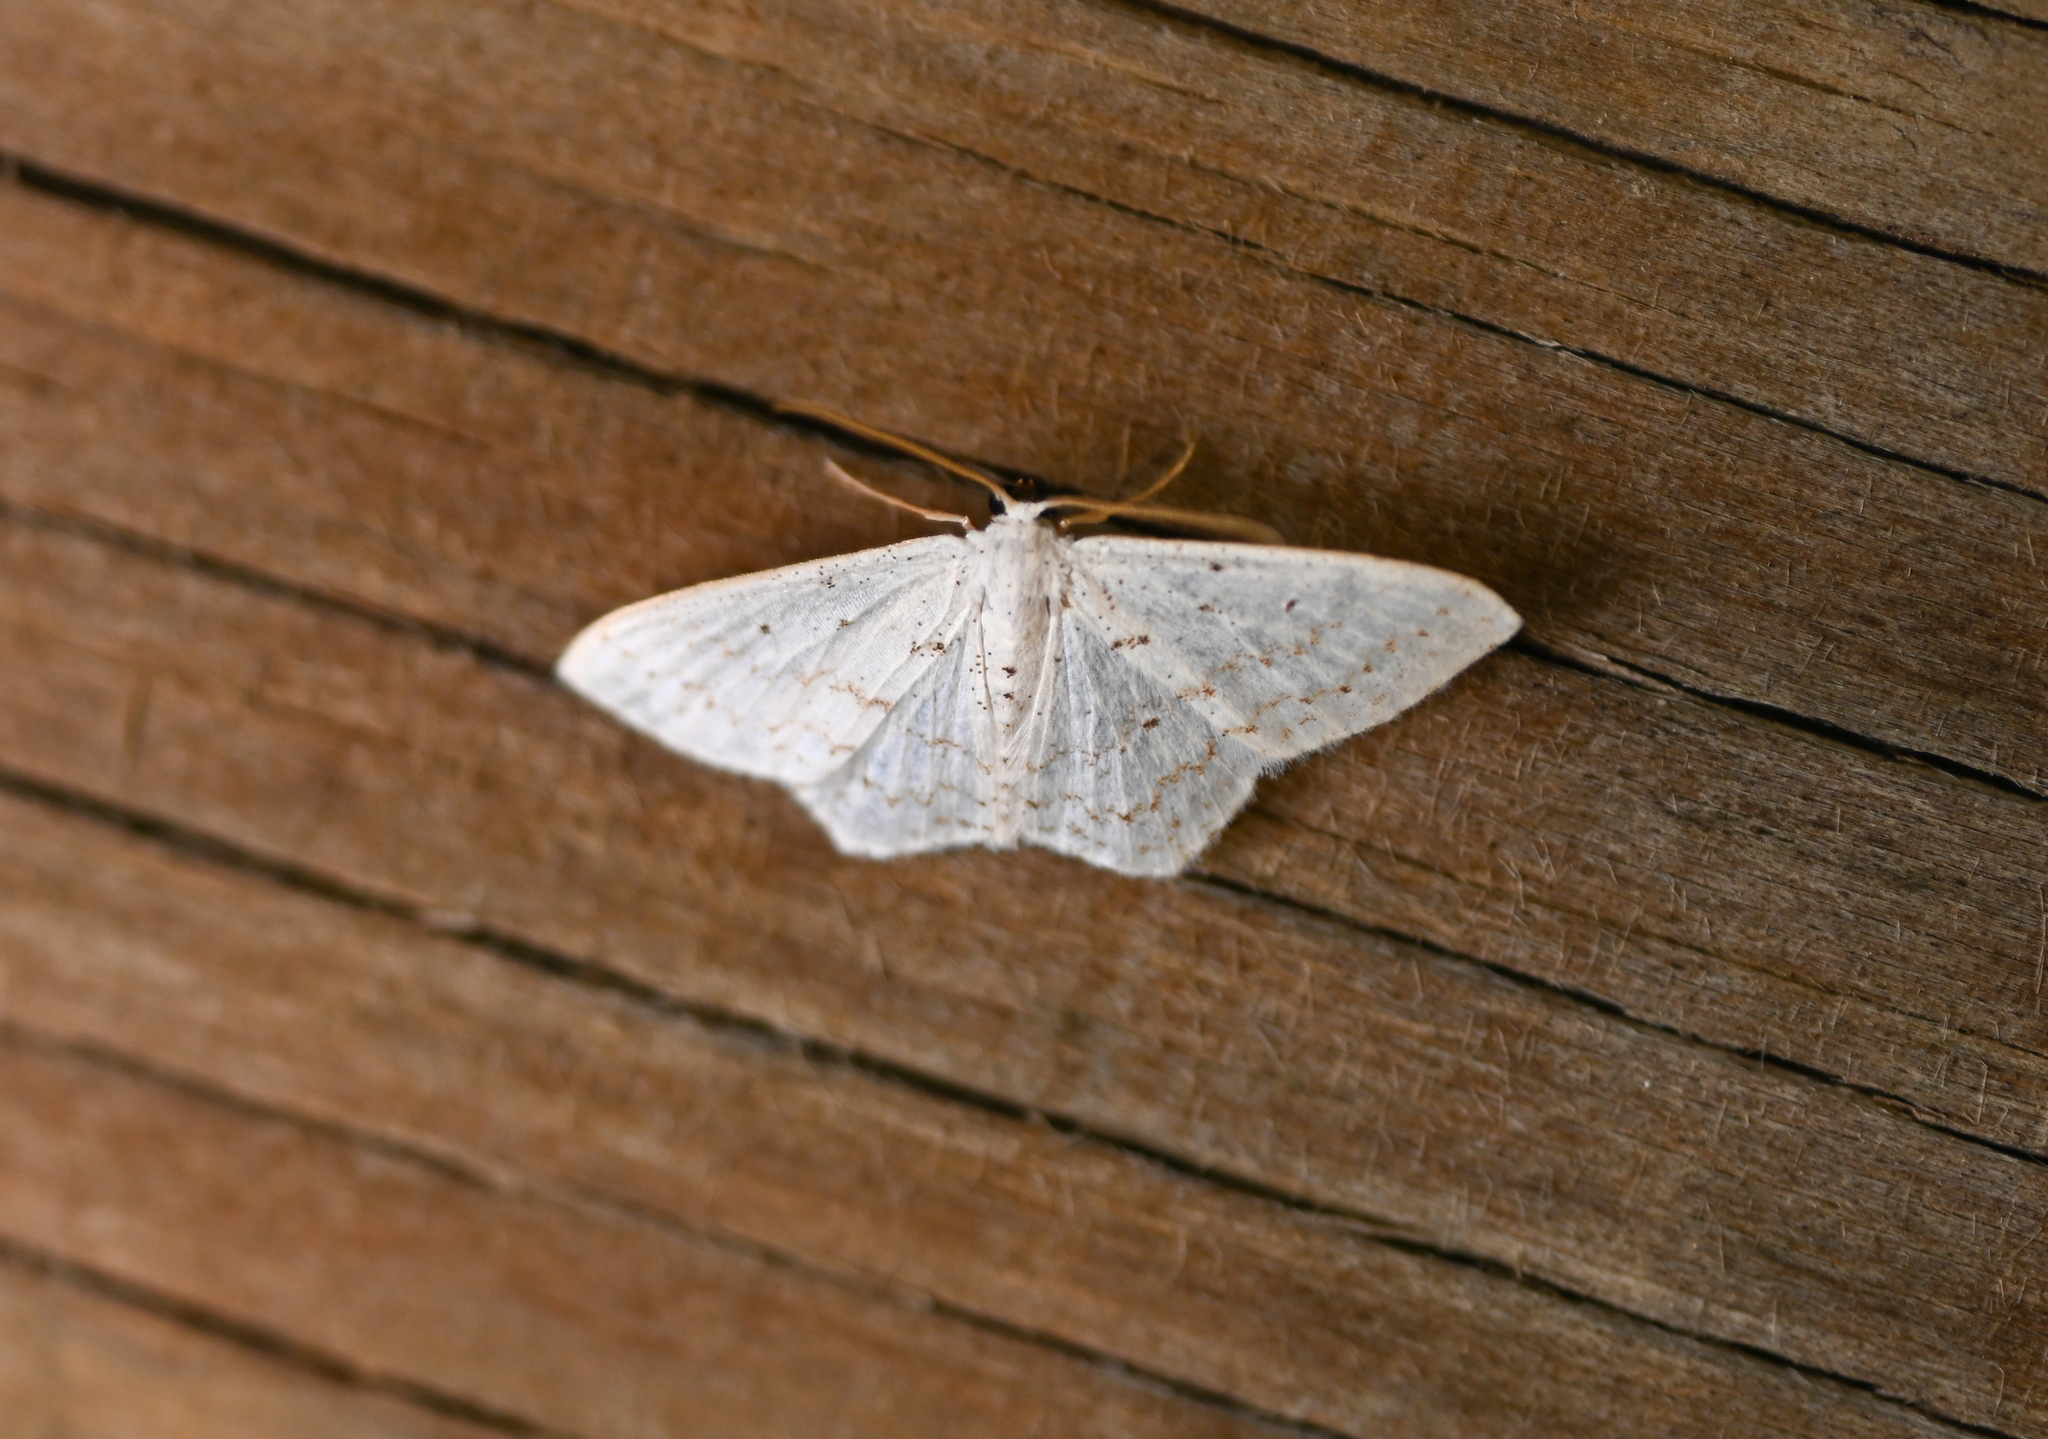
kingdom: Animalia
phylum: Arthropoda
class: Insecta
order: Lepidoptera
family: Geometridae
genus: Idaea
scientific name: Idaea tacturata
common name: Dot-lined wave
